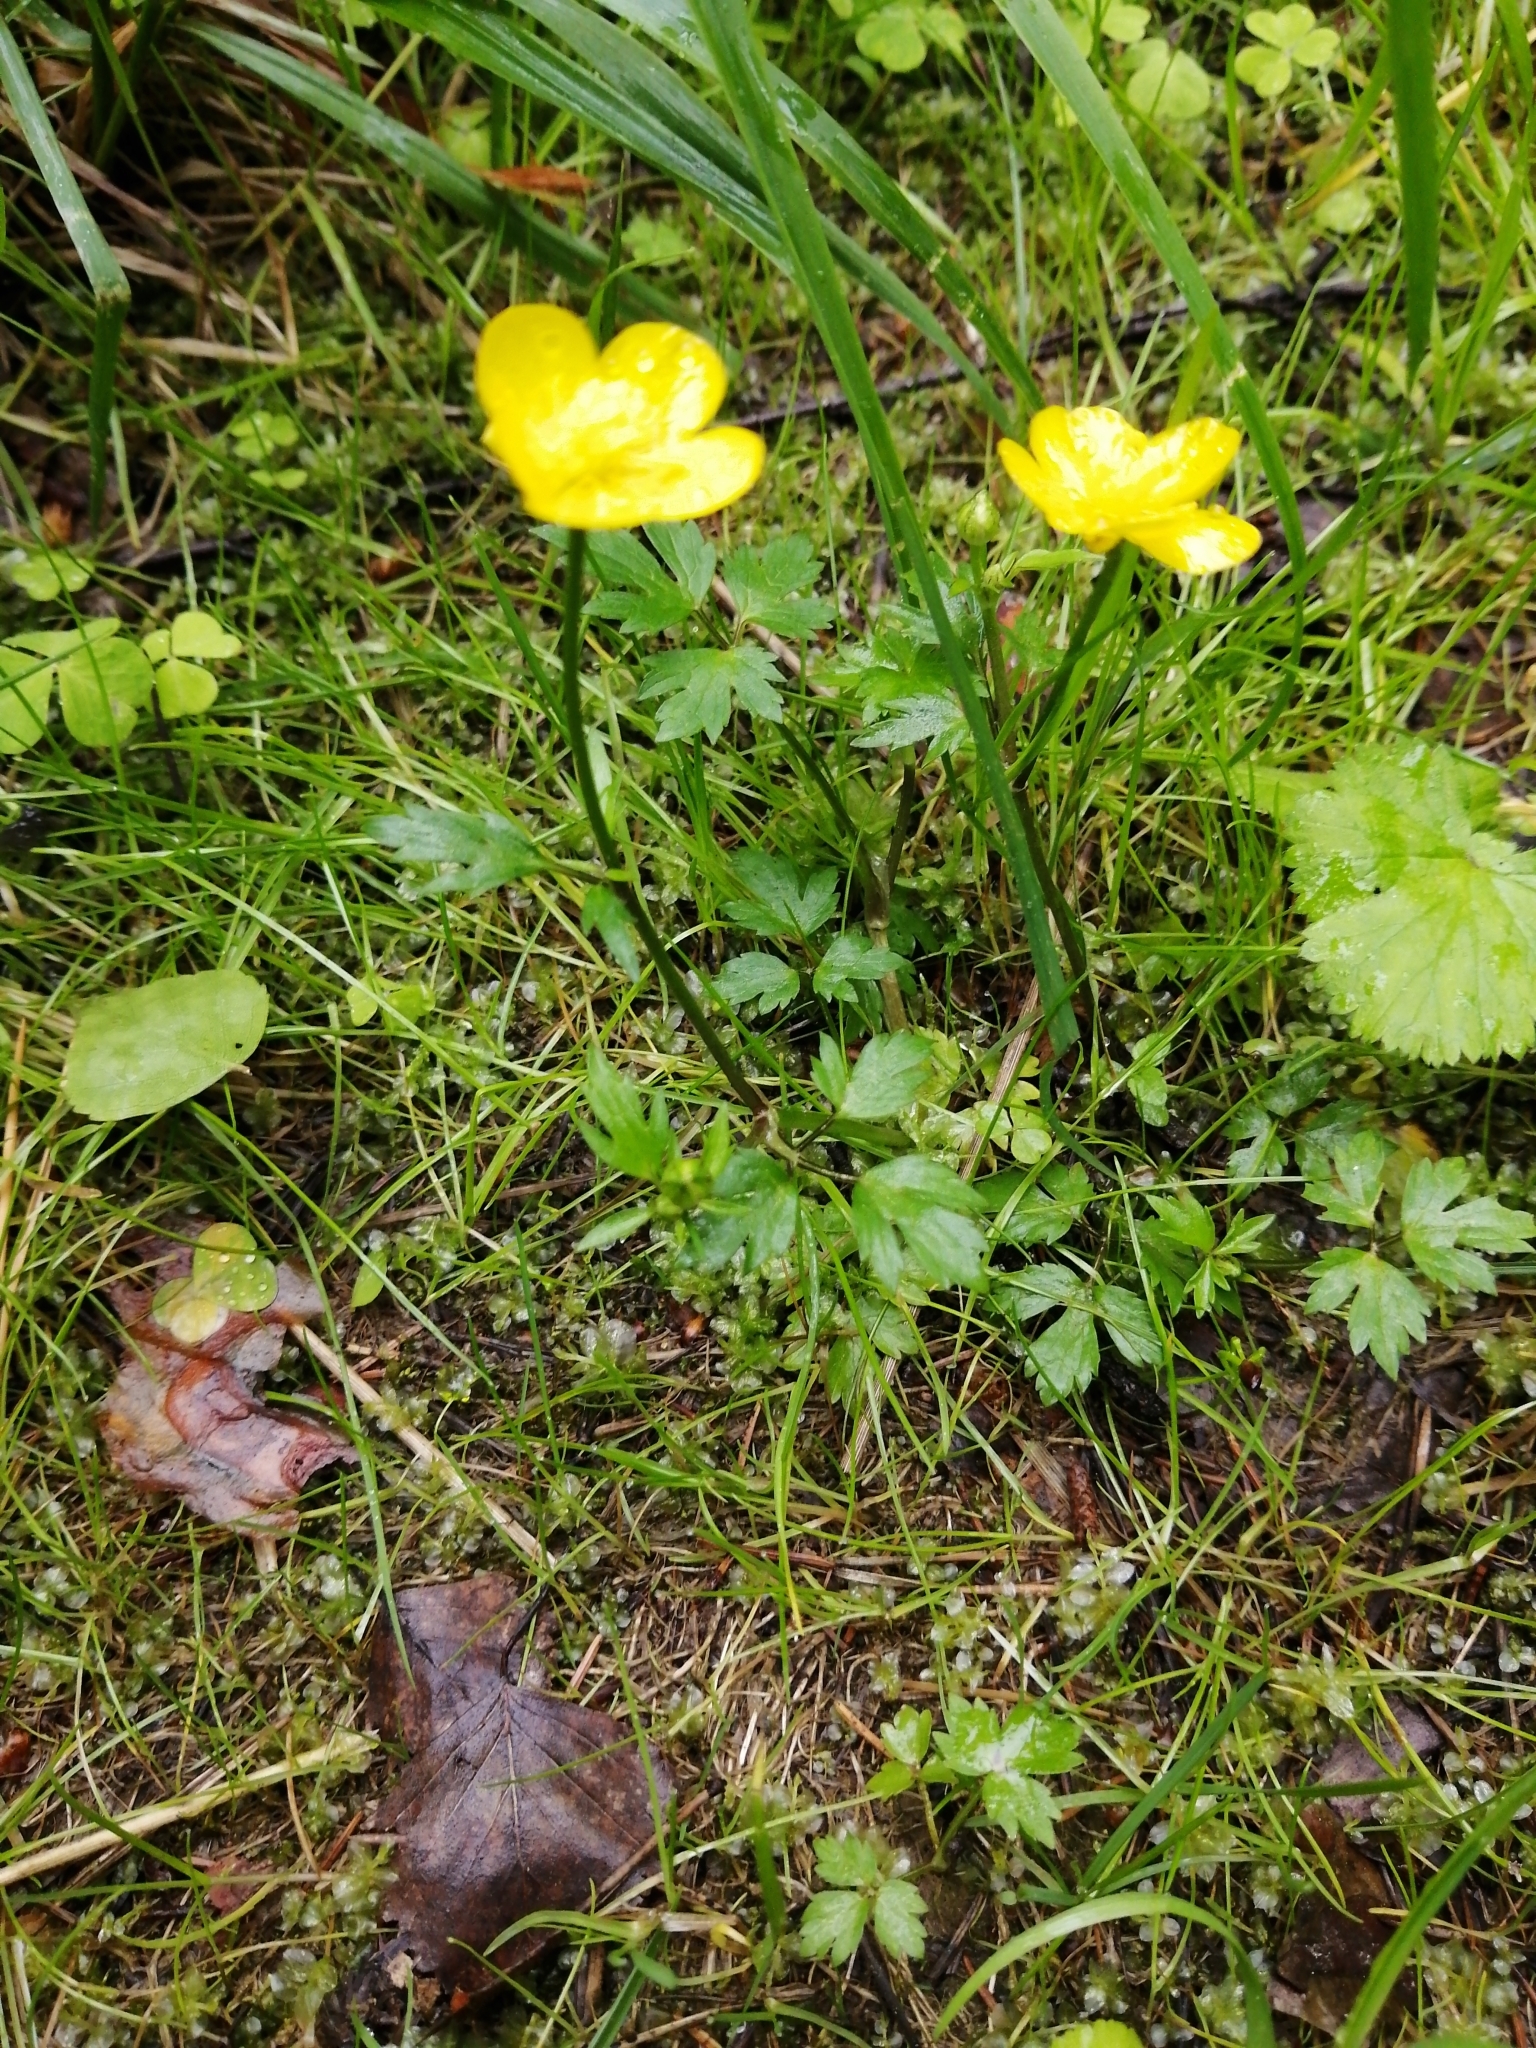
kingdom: Plantae
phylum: Tracheophyta
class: Magnoliopsida
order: Ranunculales
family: Ranunculaceae
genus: Ranunculus
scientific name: Ranunculus repens
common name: Creeping buttercup
